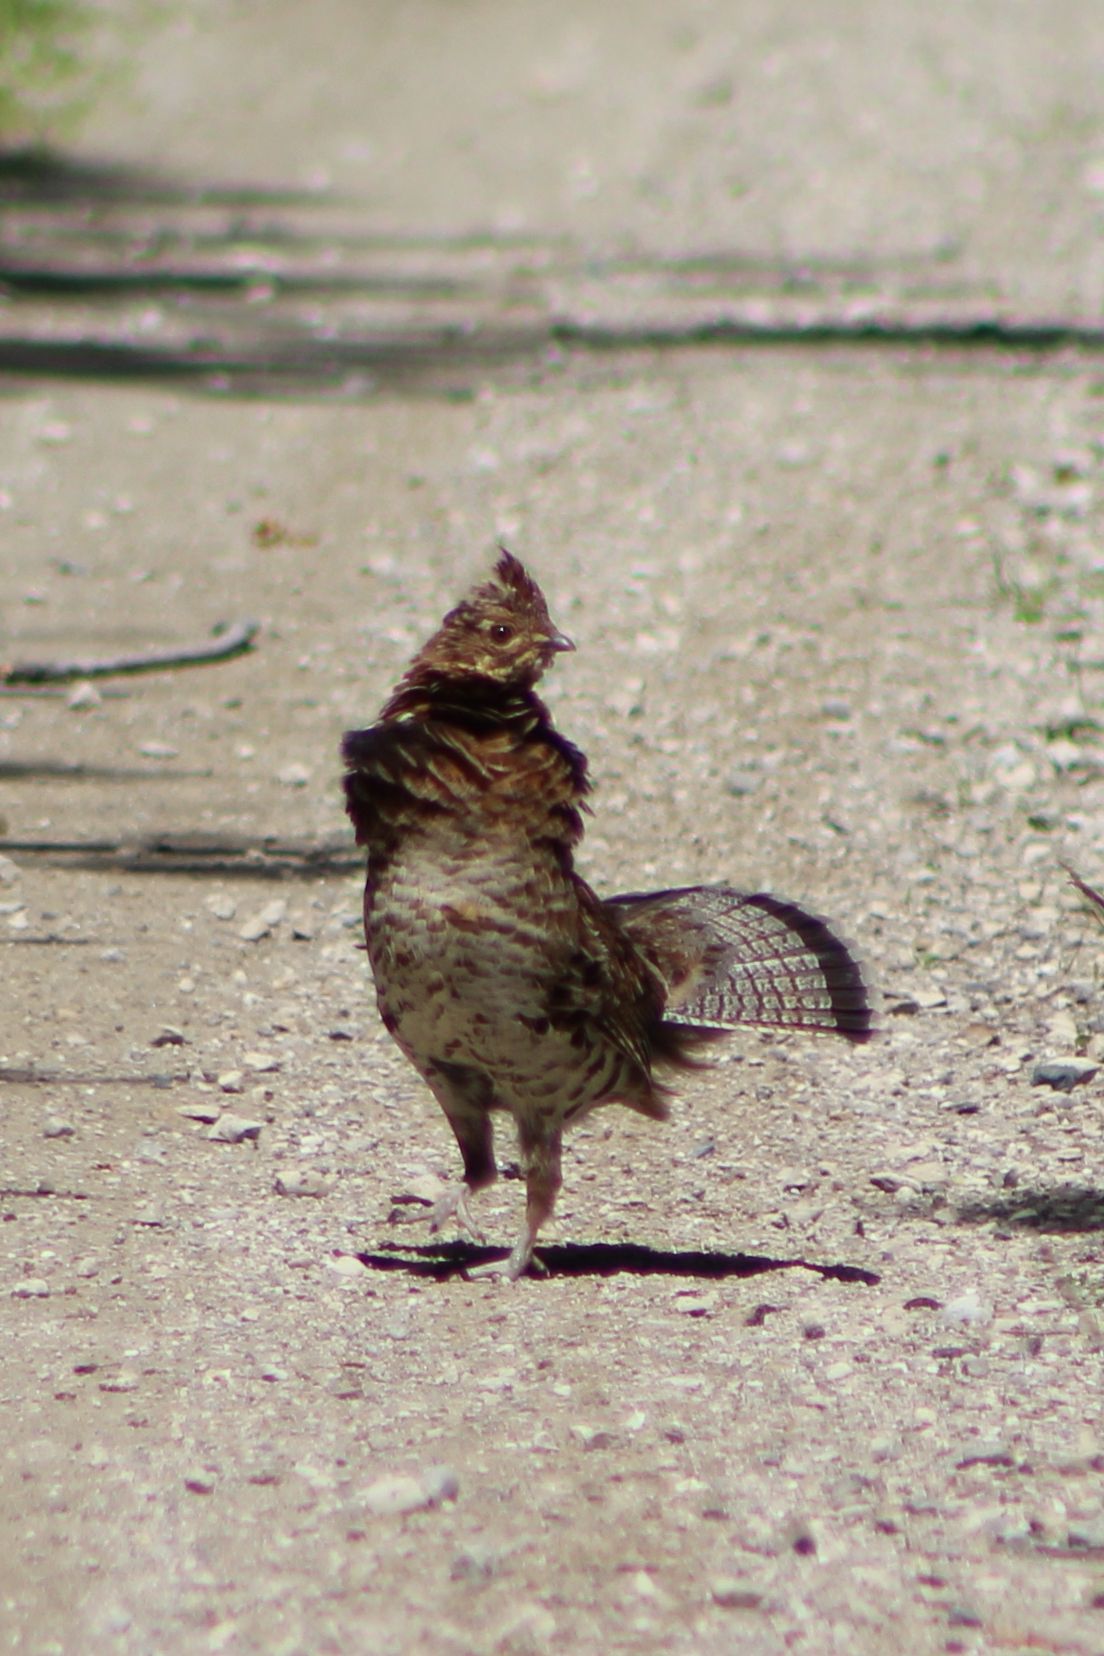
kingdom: Animalia
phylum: Chordata
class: Aves
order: Galliformes
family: Phasianidae
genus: Bonasa
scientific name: Bonasa umbellus
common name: Ruffed grouse
